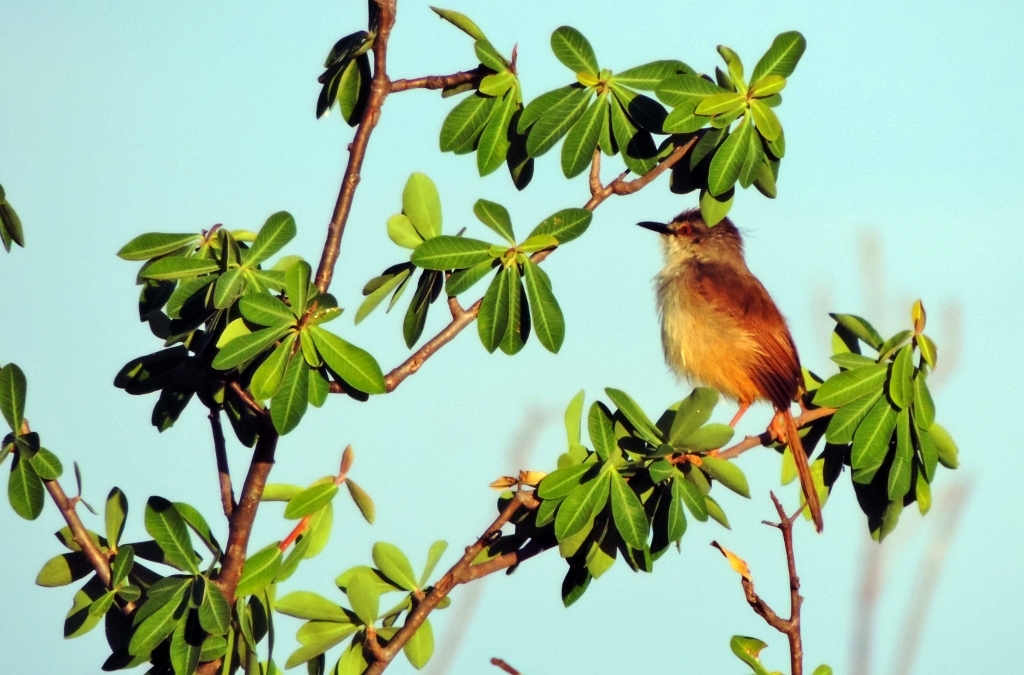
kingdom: Animalia
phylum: Chordata
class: Aves
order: Passeriformes
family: Cisticolidae
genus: Prinia
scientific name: Prinia subflava
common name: Tawny-flanked prinia
